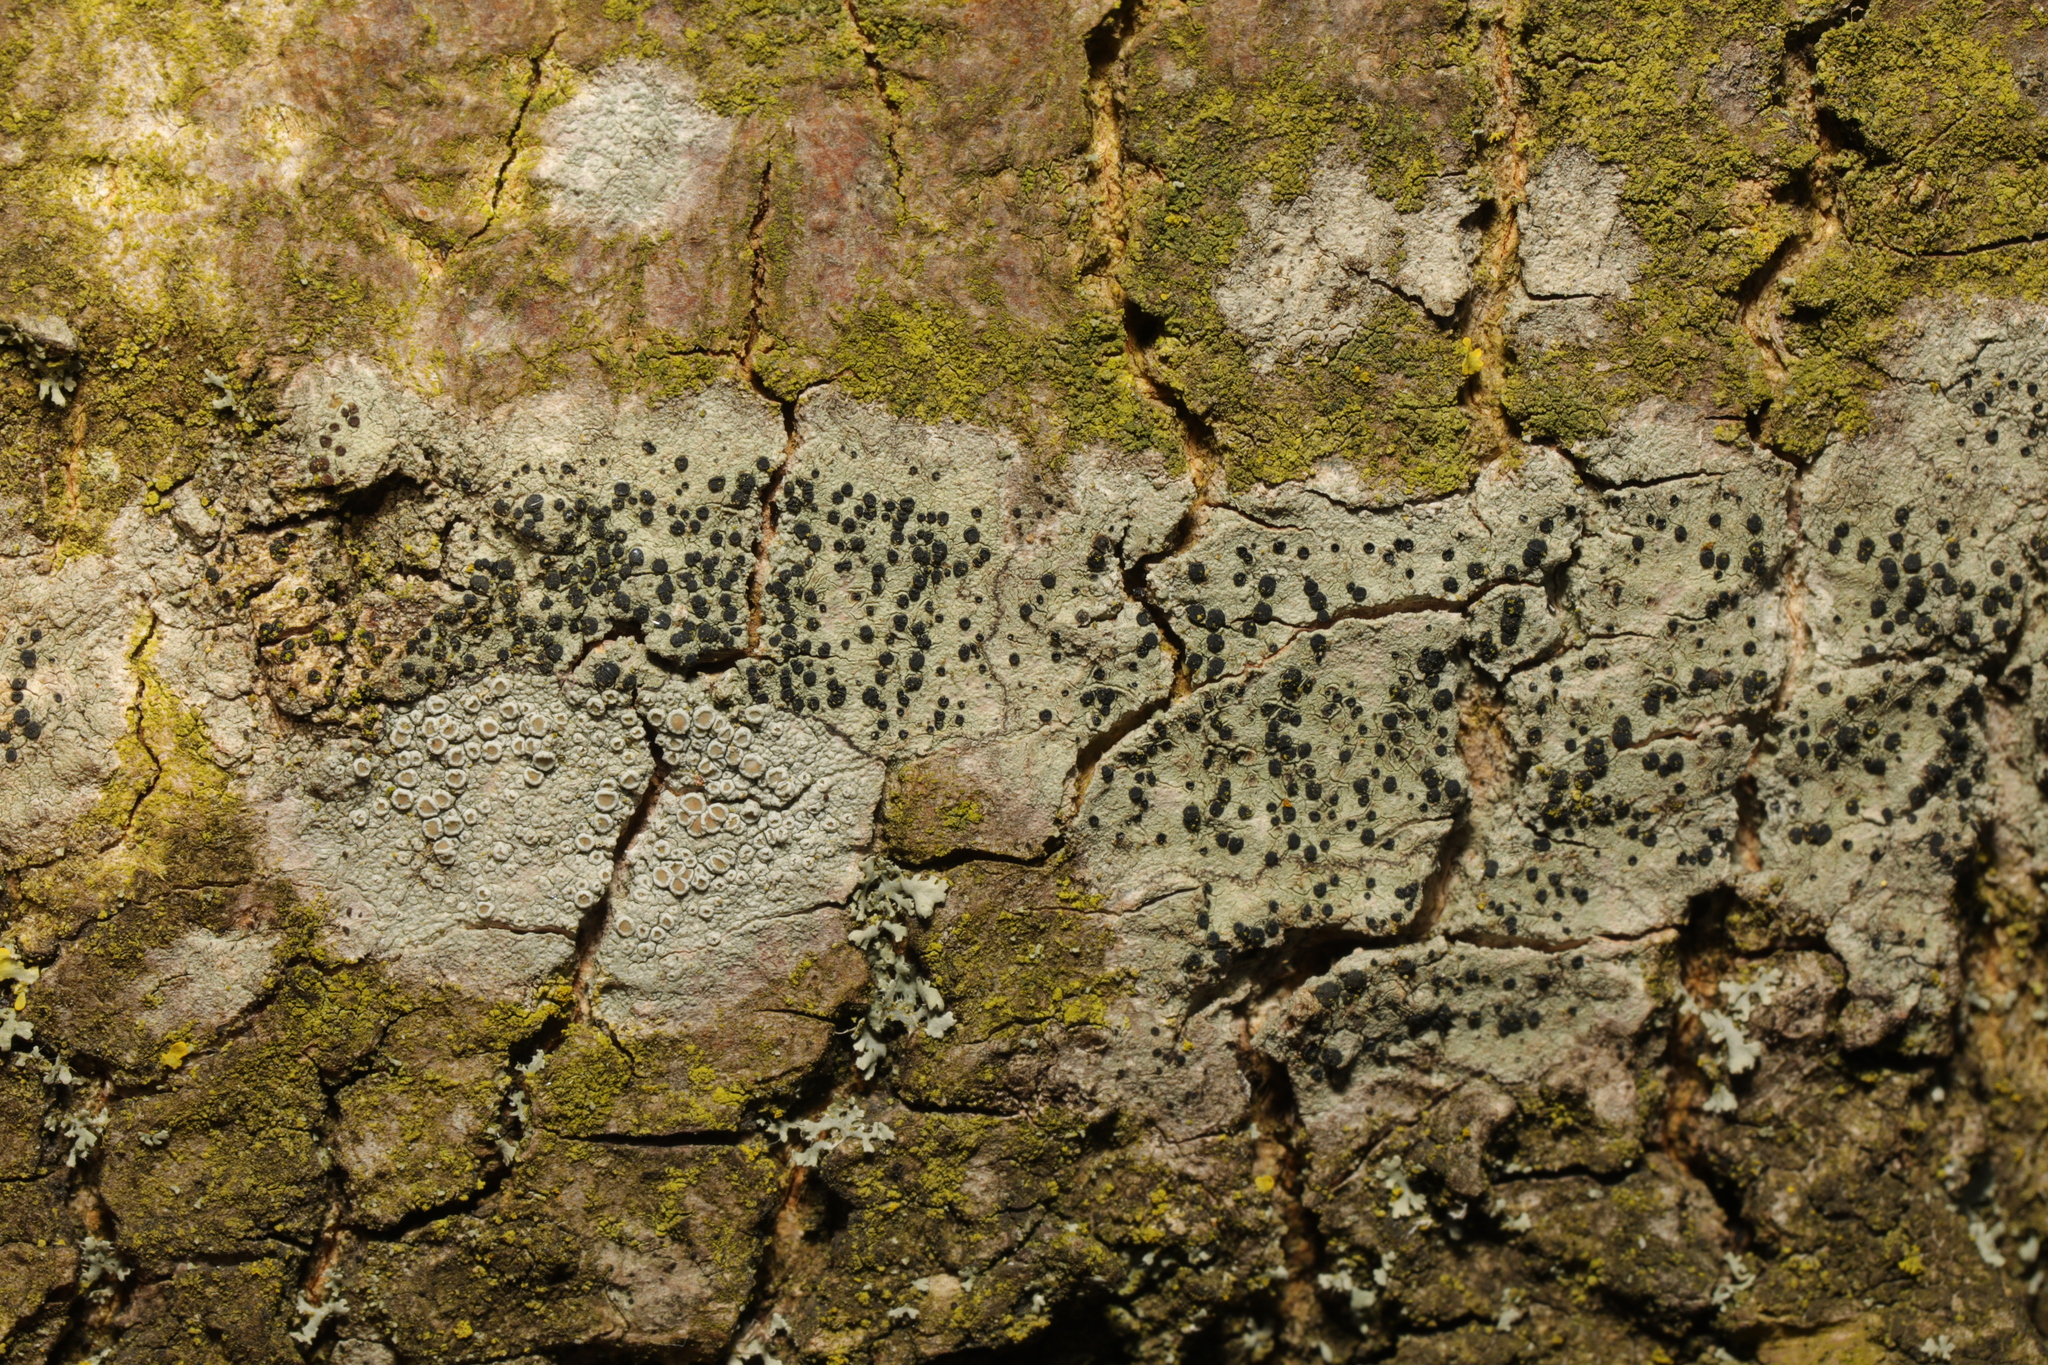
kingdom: Fungi
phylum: Ascomycota
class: Lecanoromycetes
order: Lecanorales
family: Lecanoraceae
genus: Lecidella
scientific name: Lecidella elaeochroma
